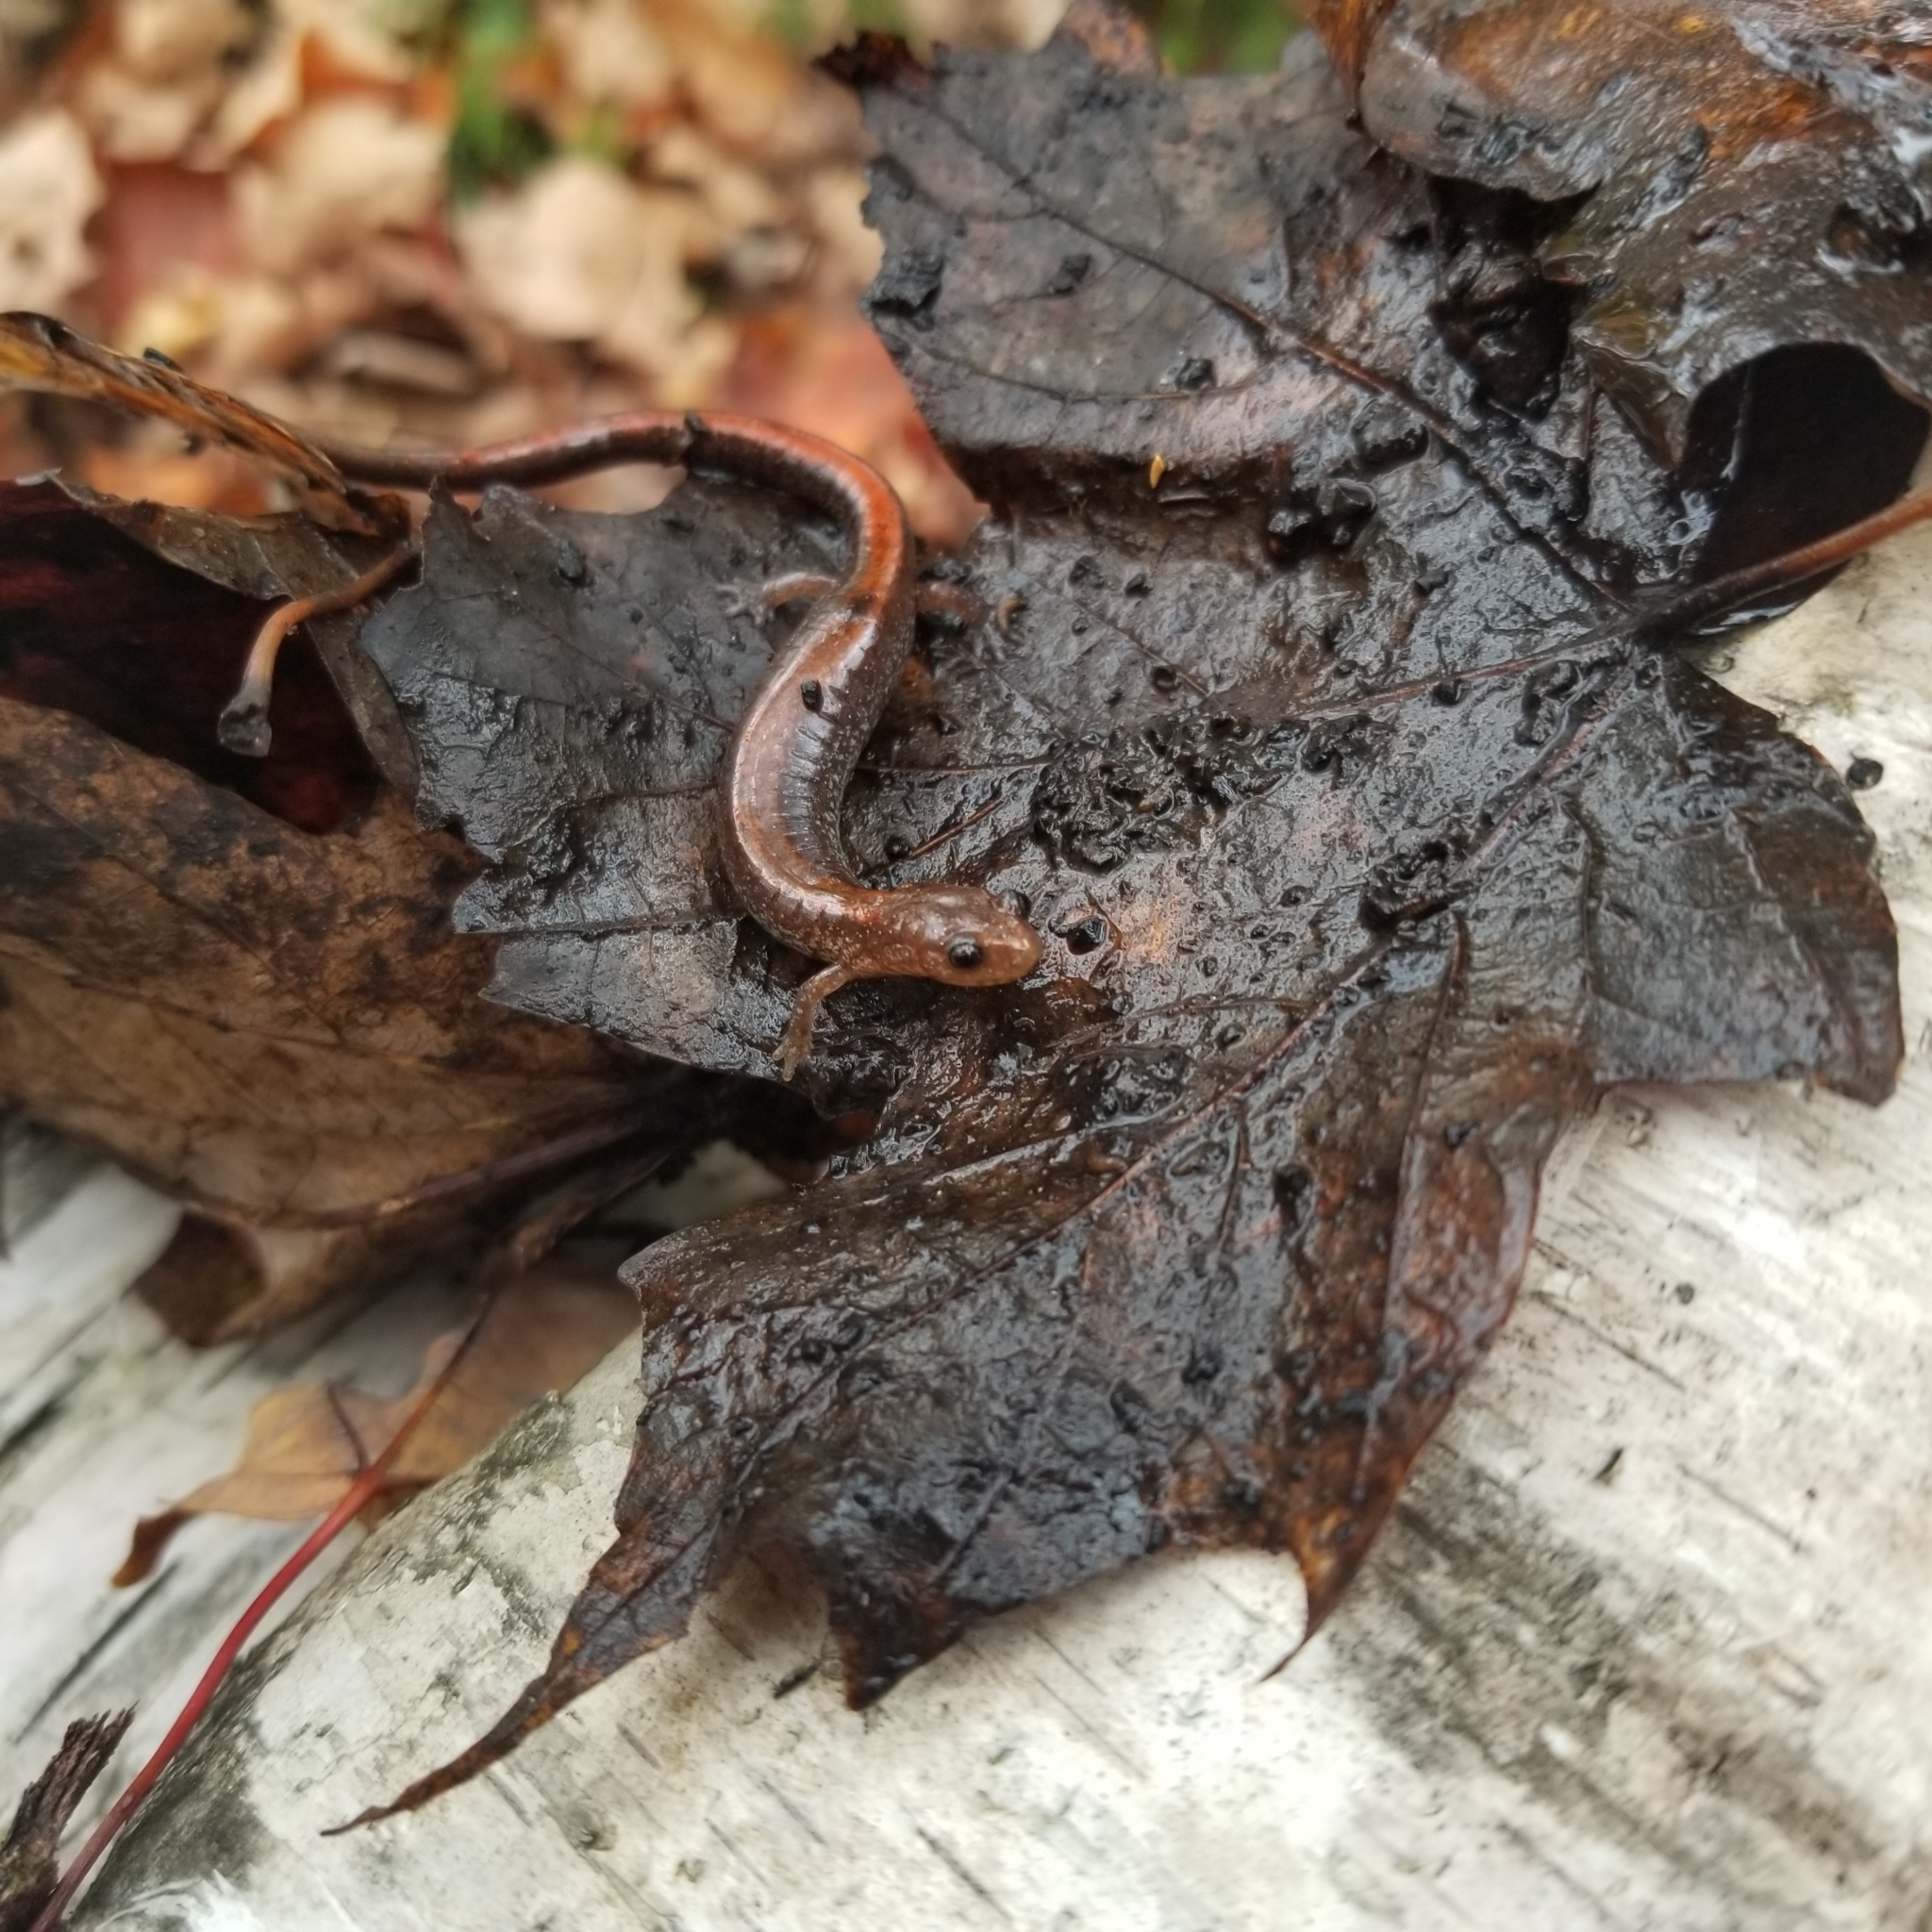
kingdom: Animalia
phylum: Chordata
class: Amphibia
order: Caudata
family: Plethodontidae
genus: Plethodon
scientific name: Plethodon cinereus
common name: Redback salamander
